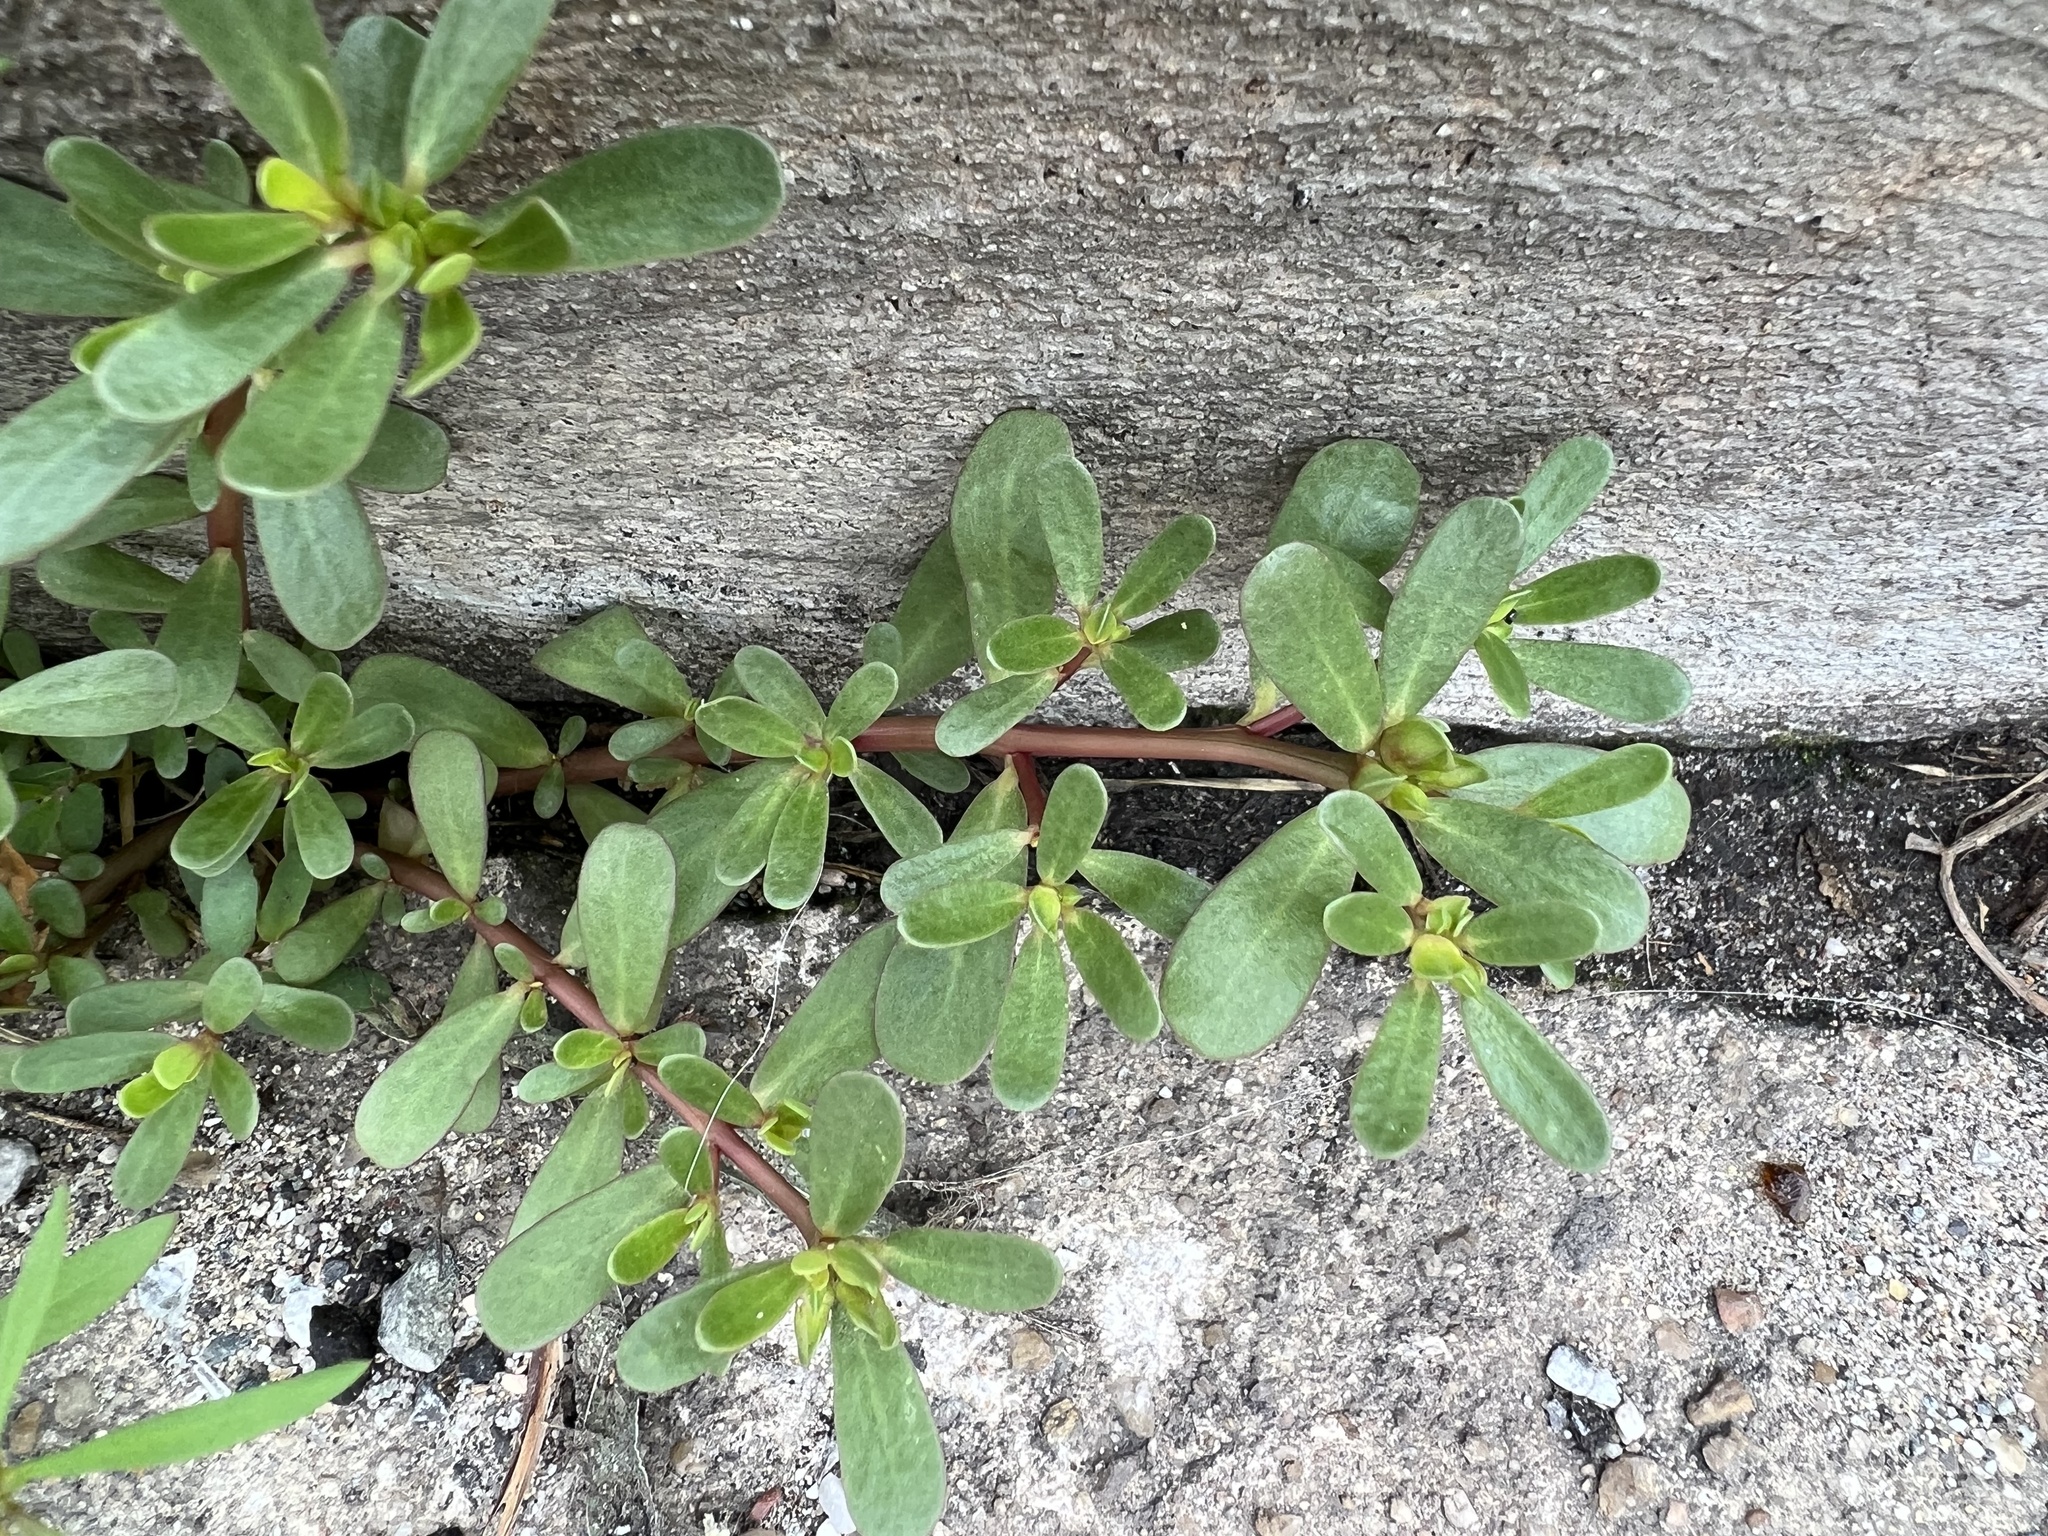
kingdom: Plantae
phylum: Tracheophyta
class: Magnoliopsida
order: Caryophyllales
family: Portulacaceae
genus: Portulaca
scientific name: Portulaca oleracea
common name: Common purslane
